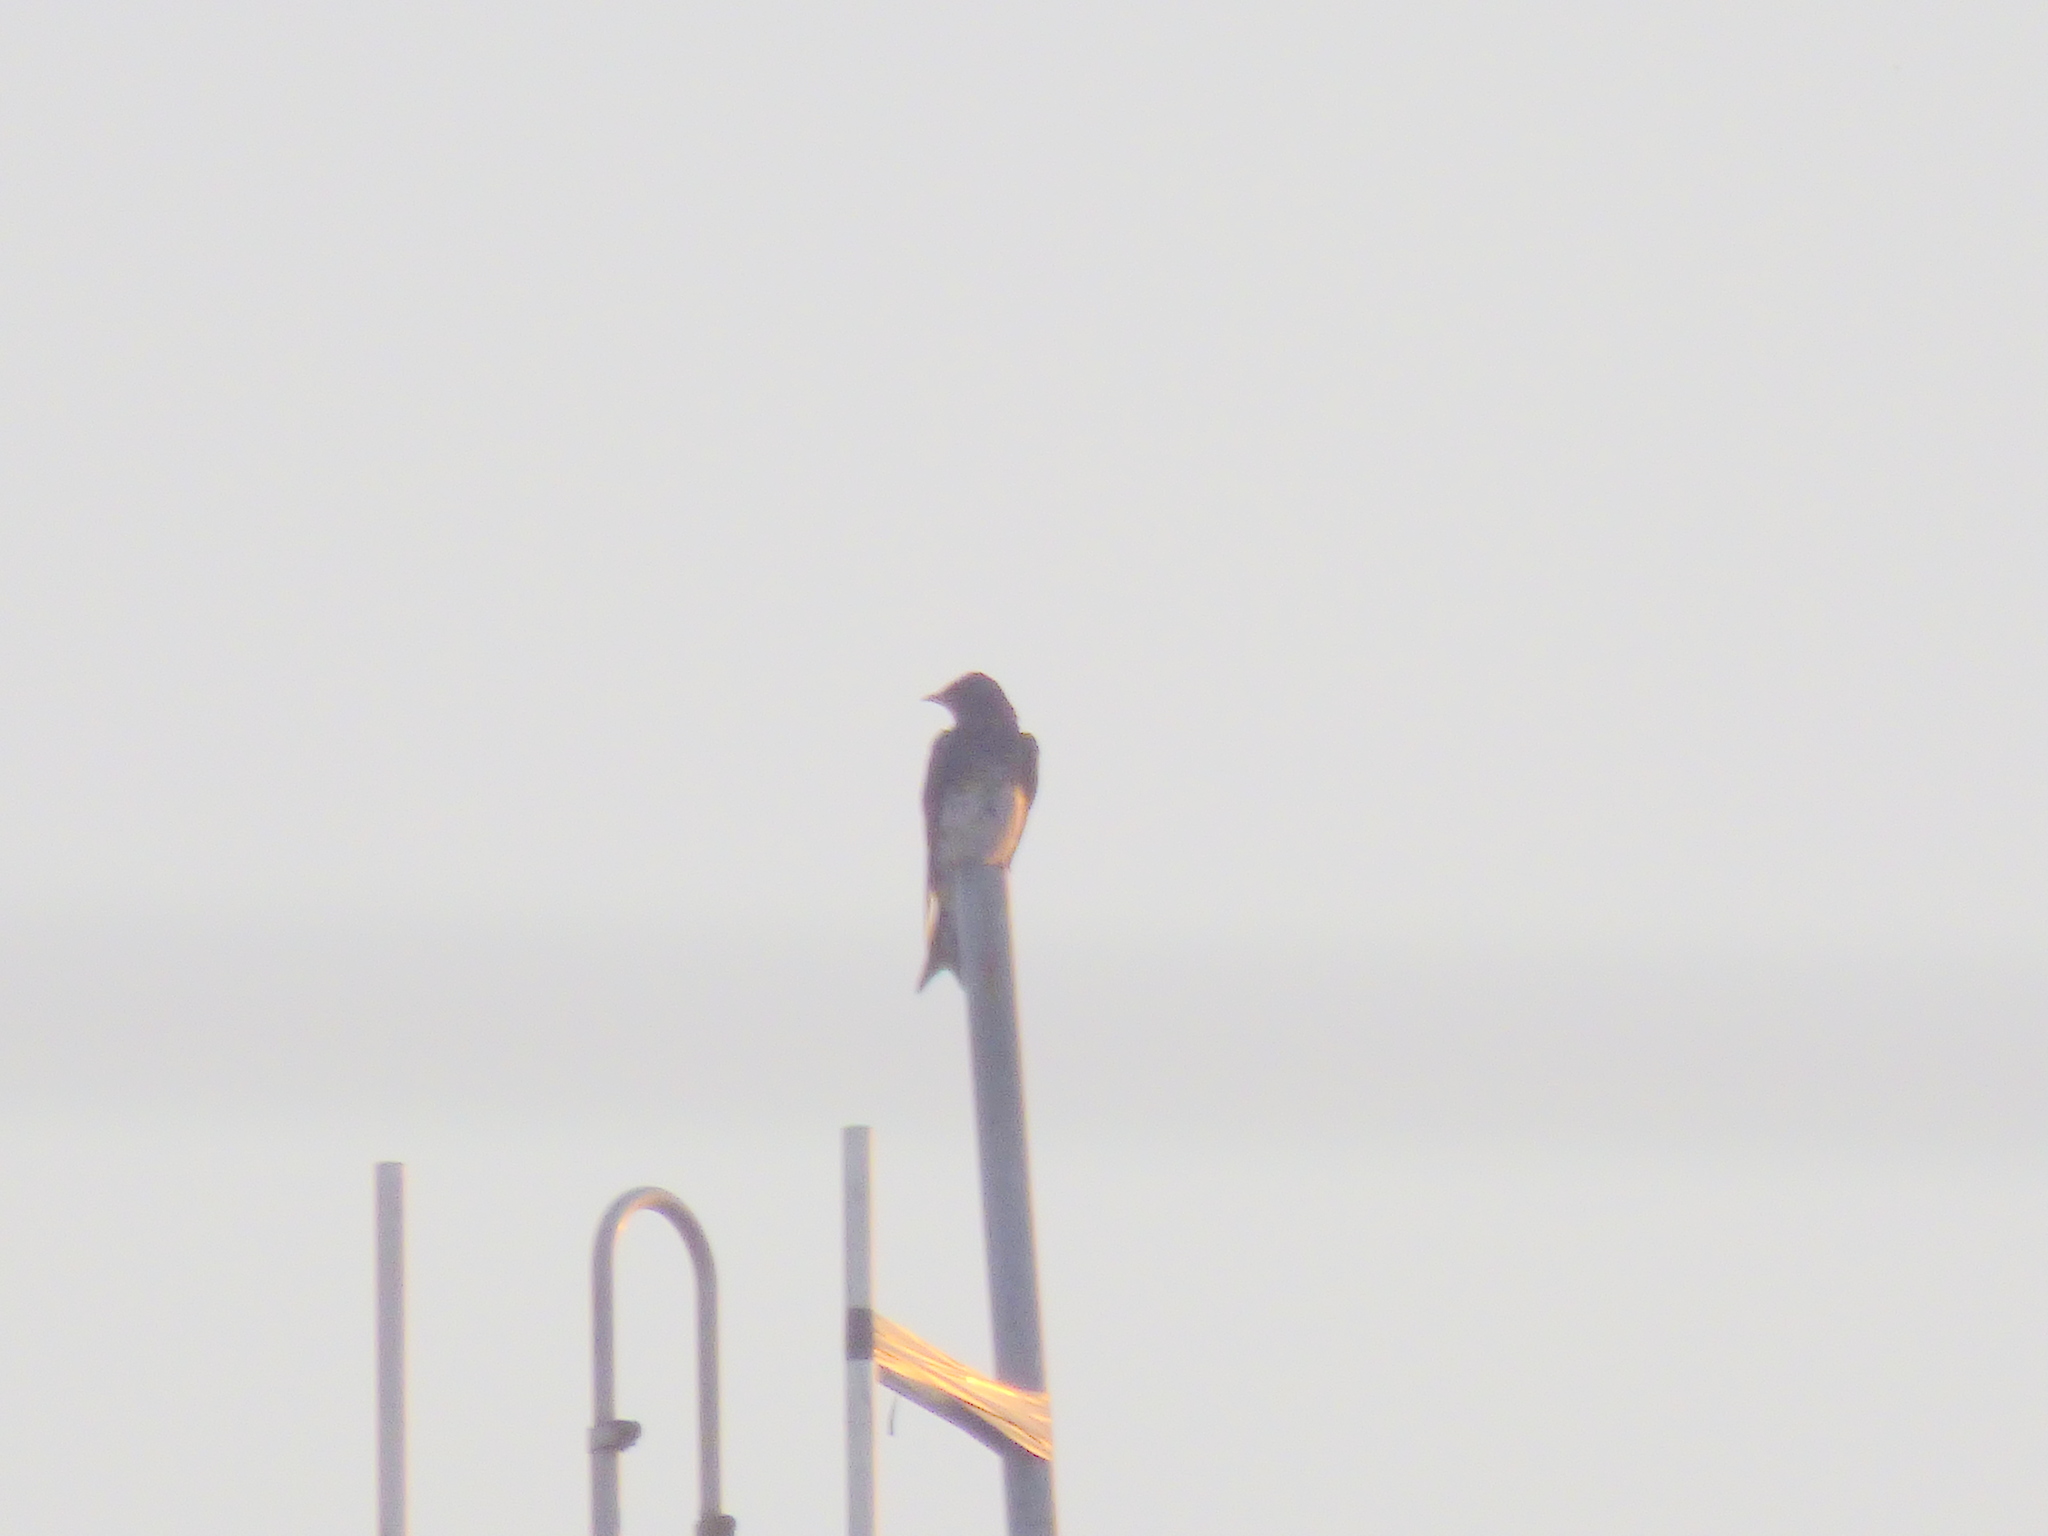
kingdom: Animalia
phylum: Chordata
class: Aves
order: Passeriformes
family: Hirundinidae
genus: Progne
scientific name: Progne chalybea
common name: Grey-breasted martin
